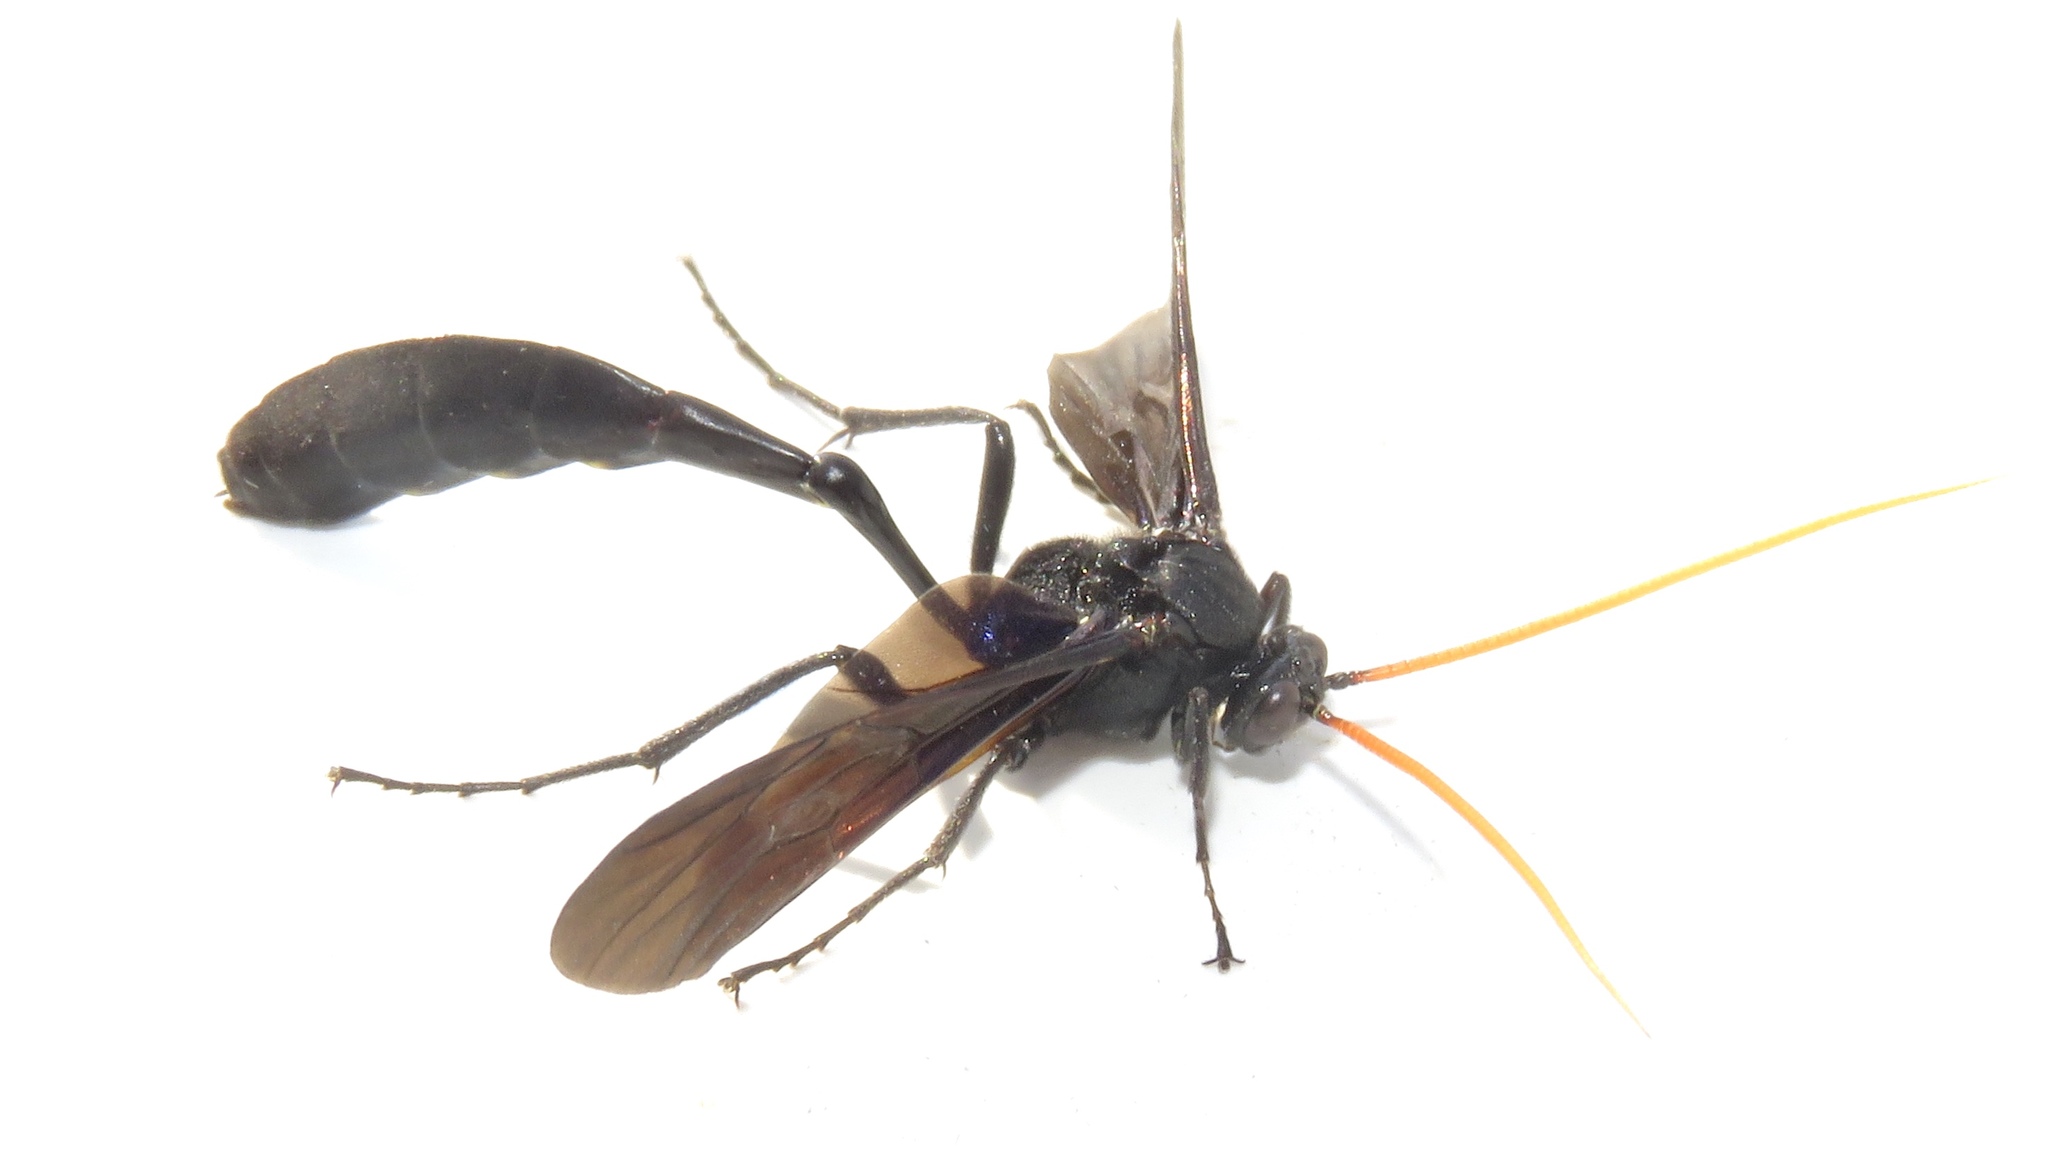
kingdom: Animalia
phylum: Arthropoda
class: Insecta
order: Hymenoptera
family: Ichneumonidae
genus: Thyreodon
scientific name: Thyreodon atricolor
